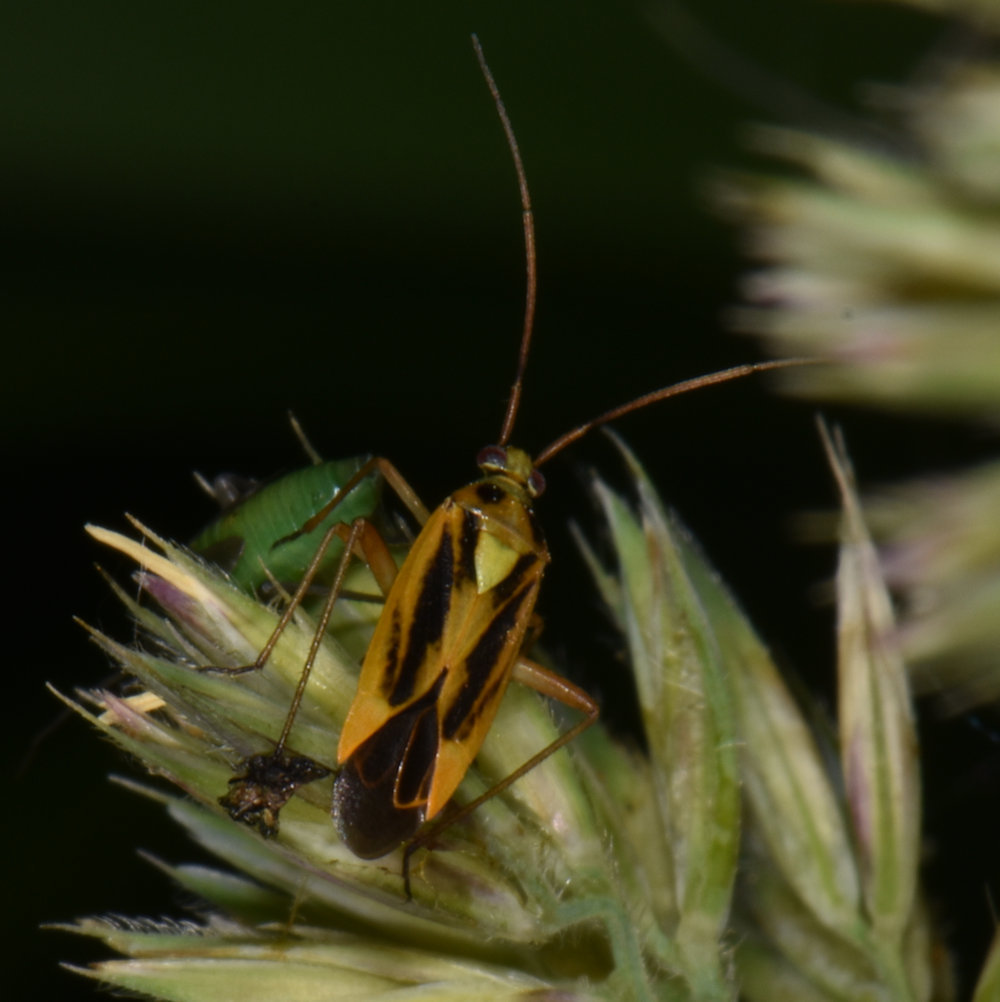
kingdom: Animalia
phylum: Arthropoda
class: Insecta
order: Hemiptera
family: Miridae
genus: Stenotus
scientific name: Stenotus binotatus
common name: Plant bug
